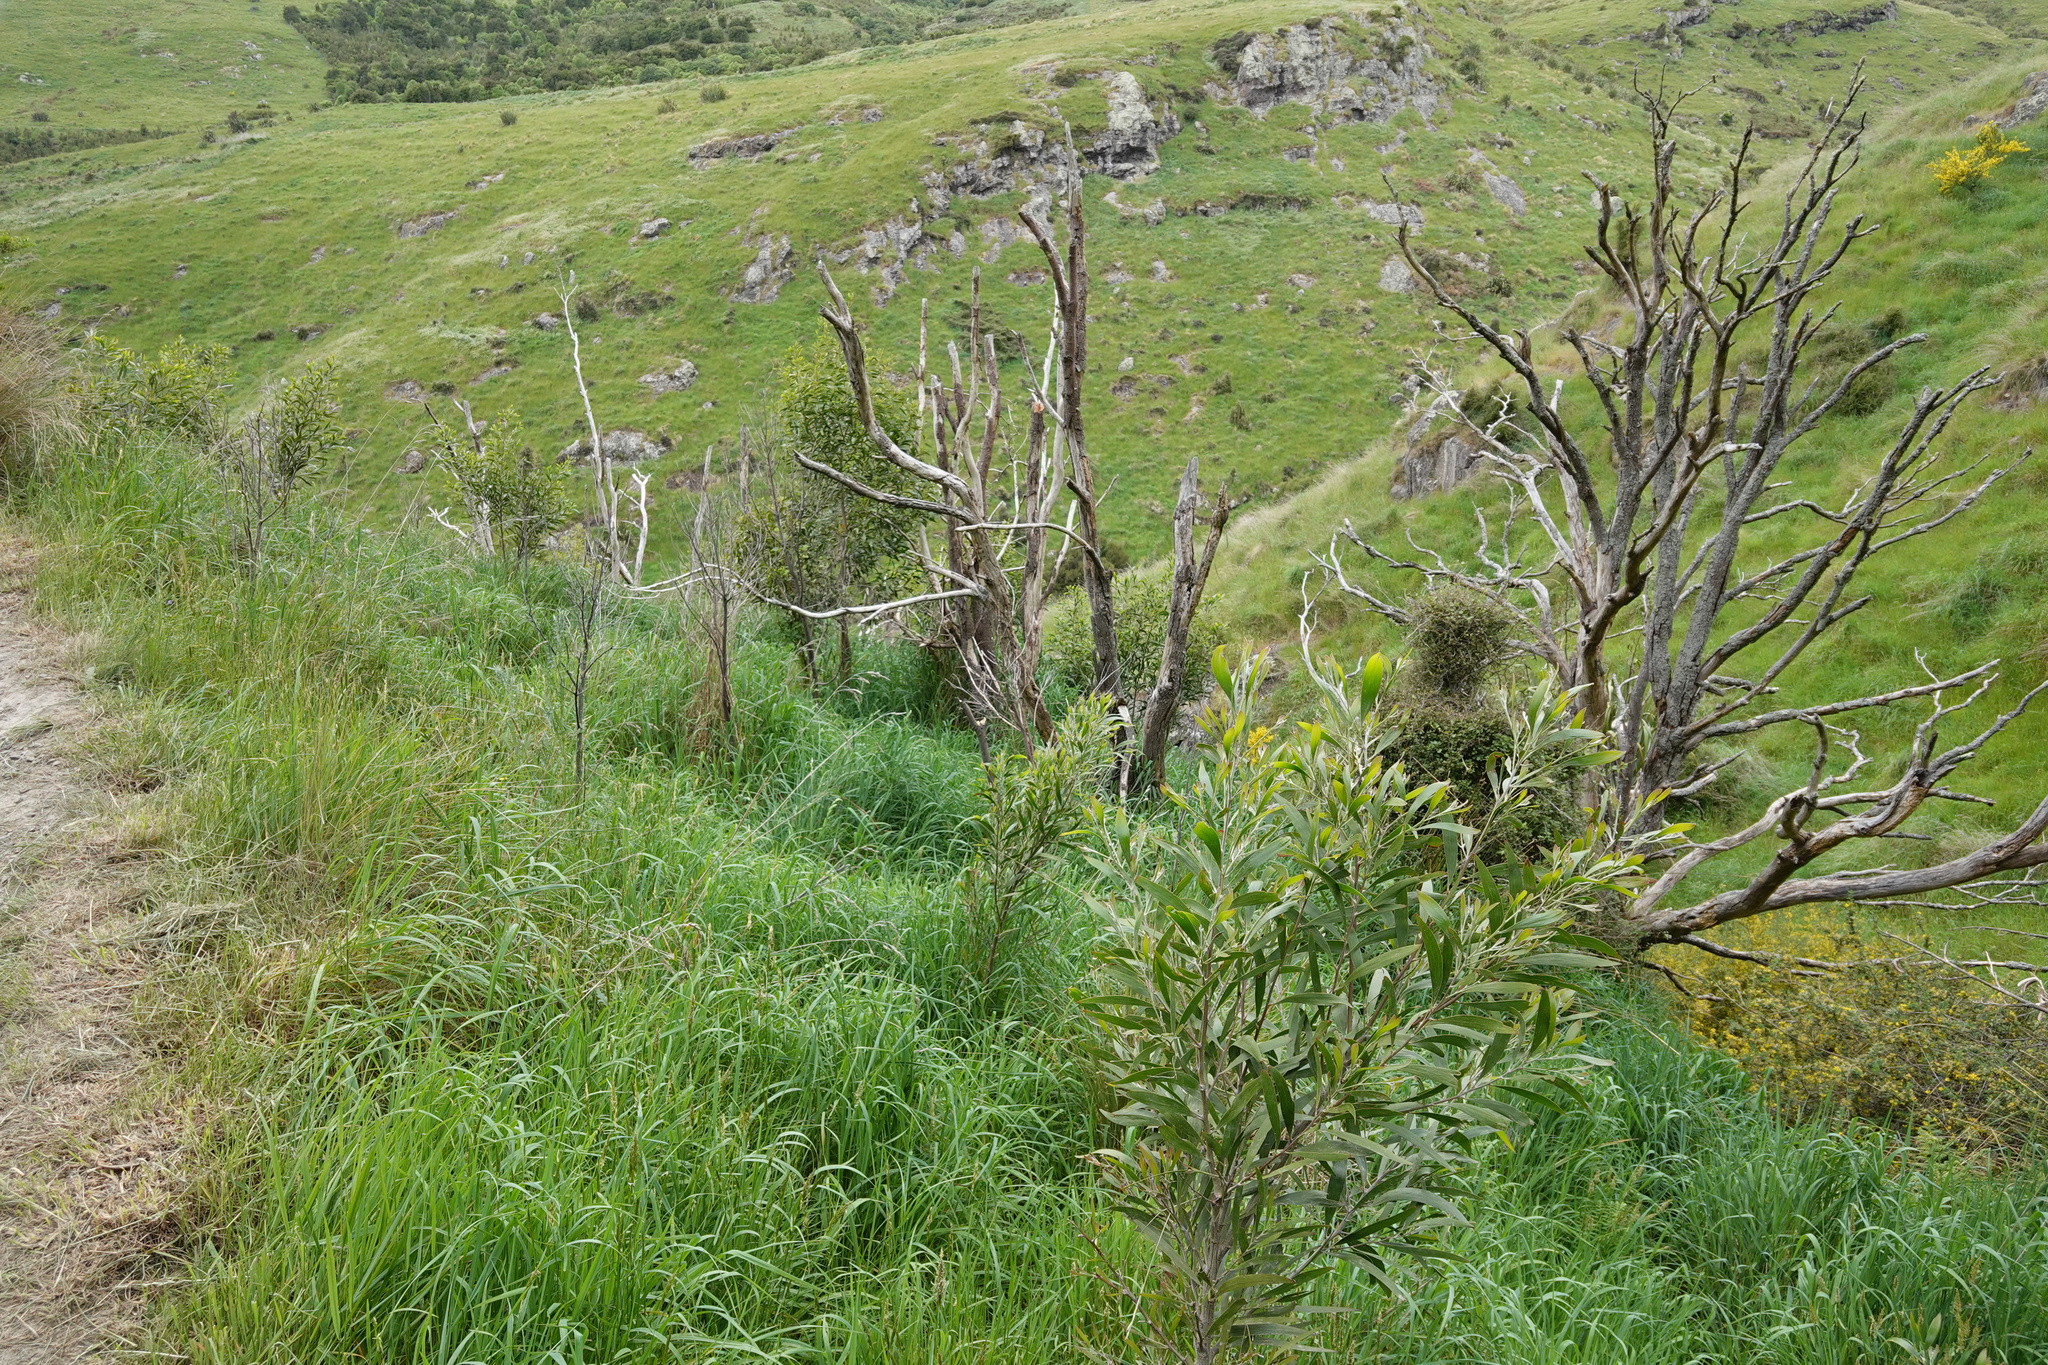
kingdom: Plantae
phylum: Tracheophyta
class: Magnoliopsida
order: Fabales
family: Fabaceae
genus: Acacia
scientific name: Acacia melanoxylon
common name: Blackwood
